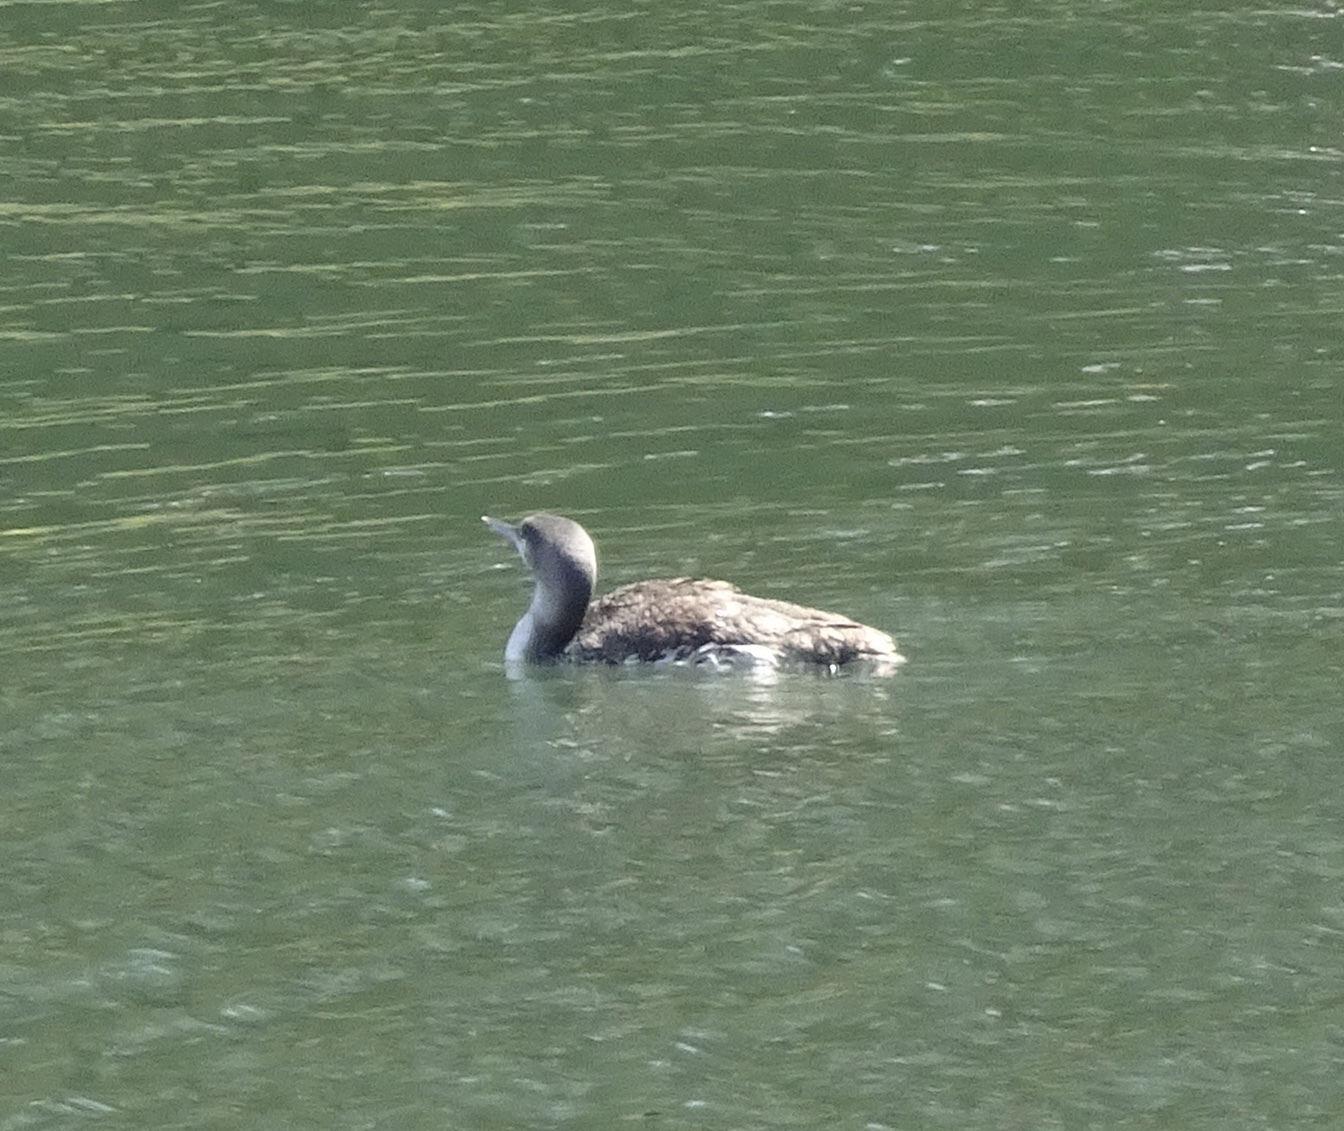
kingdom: Animalia
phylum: Chordata
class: Aves
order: Gaviiformes
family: Gaviidae
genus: Gavia
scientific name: Gavia stellata
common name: Red-throated loon
